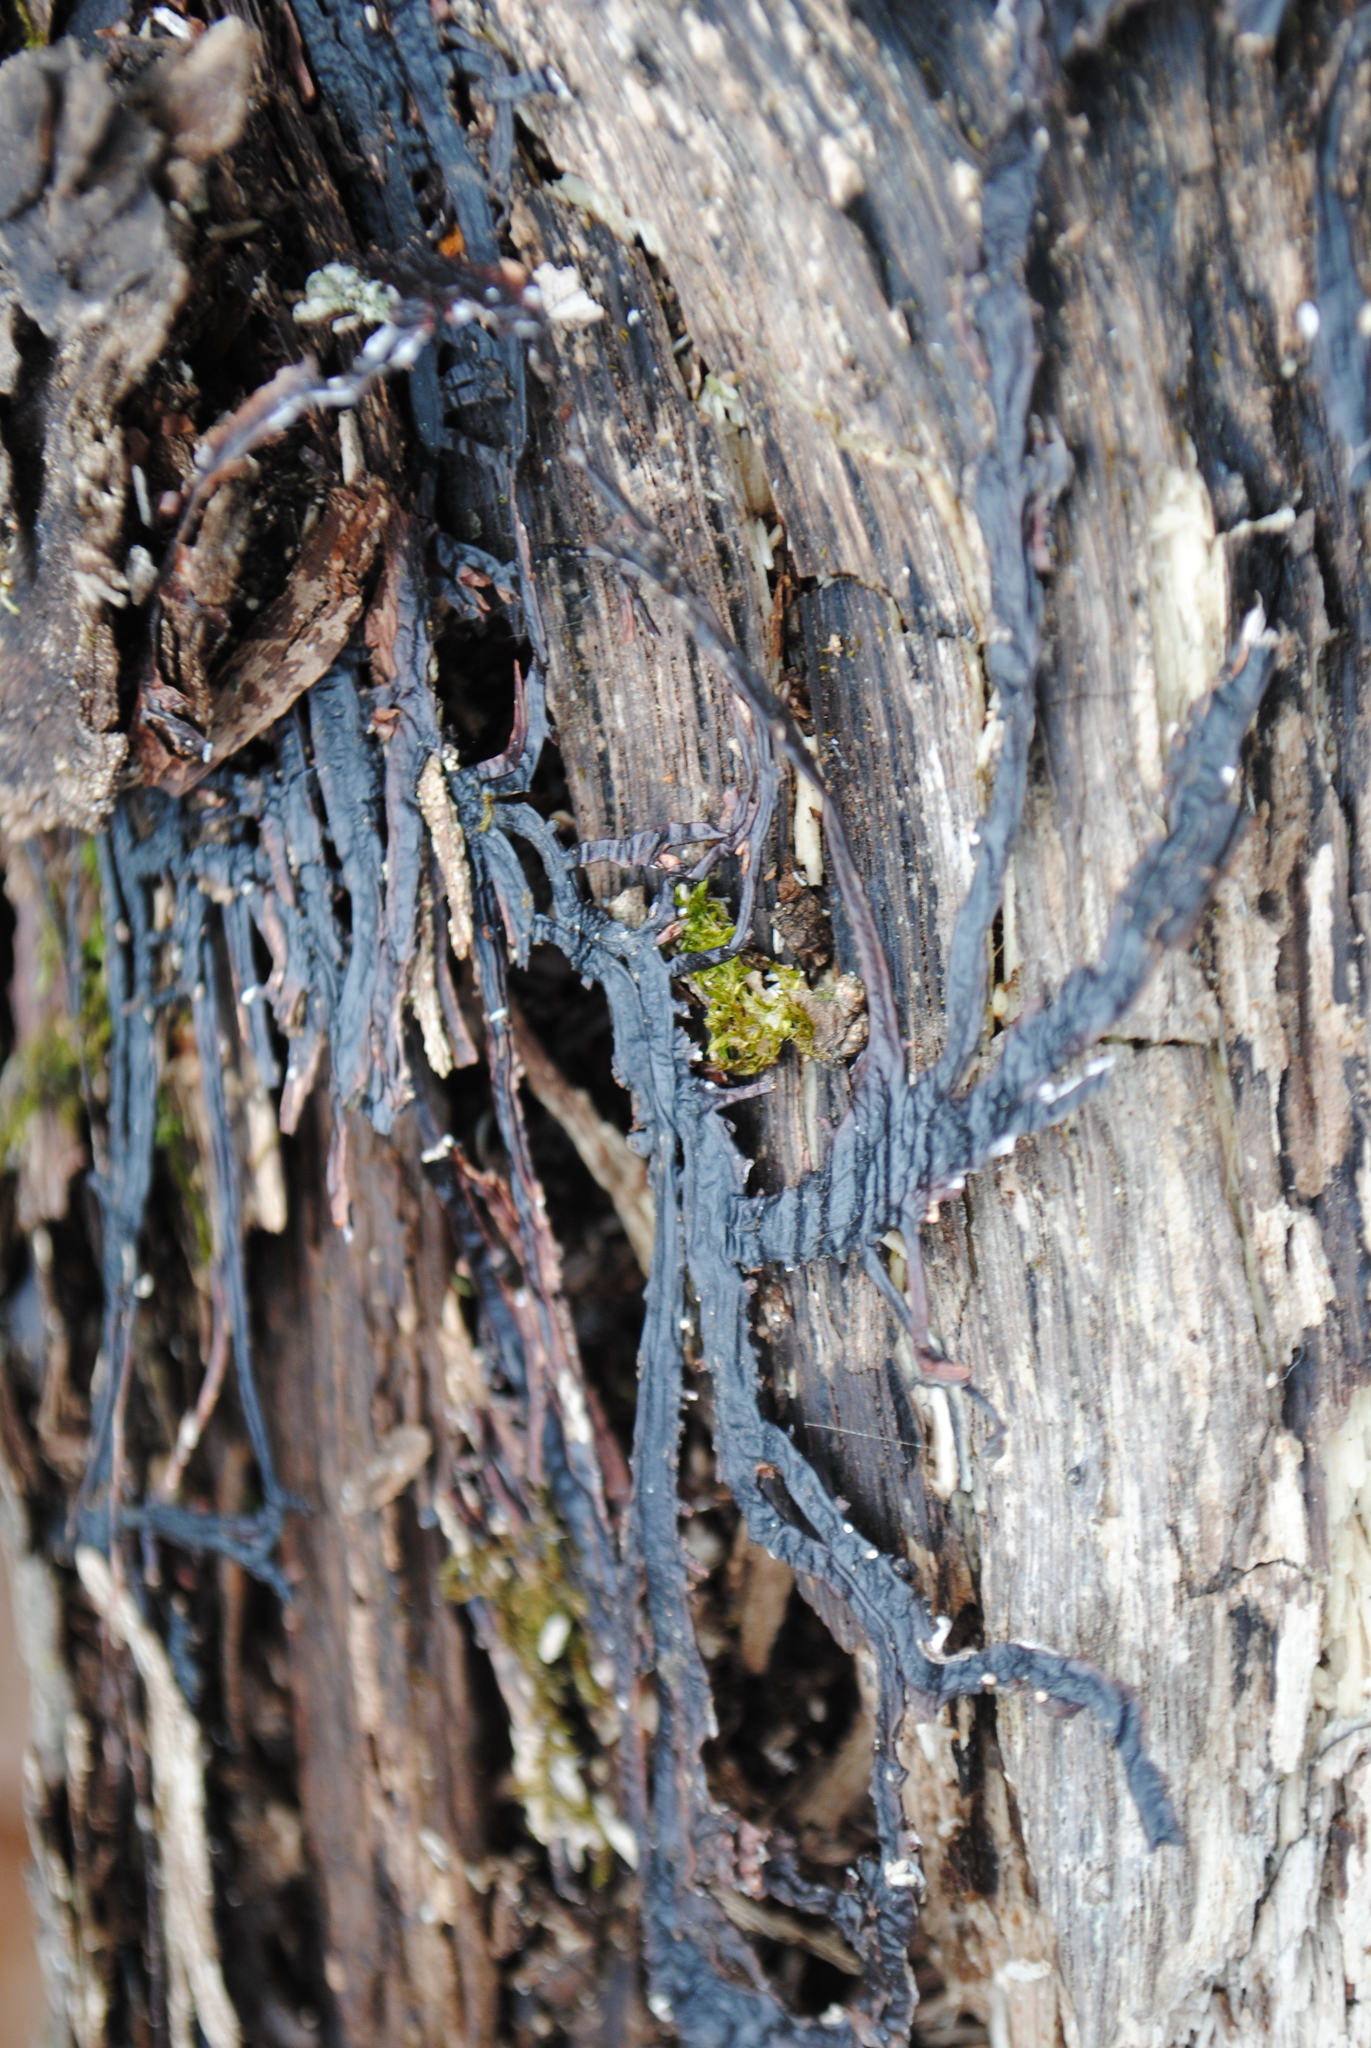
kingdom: Fungi
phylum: Basidiomycota
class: Agaricomycetes
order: Agaricales
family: Physalacriaceae
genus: Armillaria
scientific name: Armillaria mellea
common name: Honey fungus
